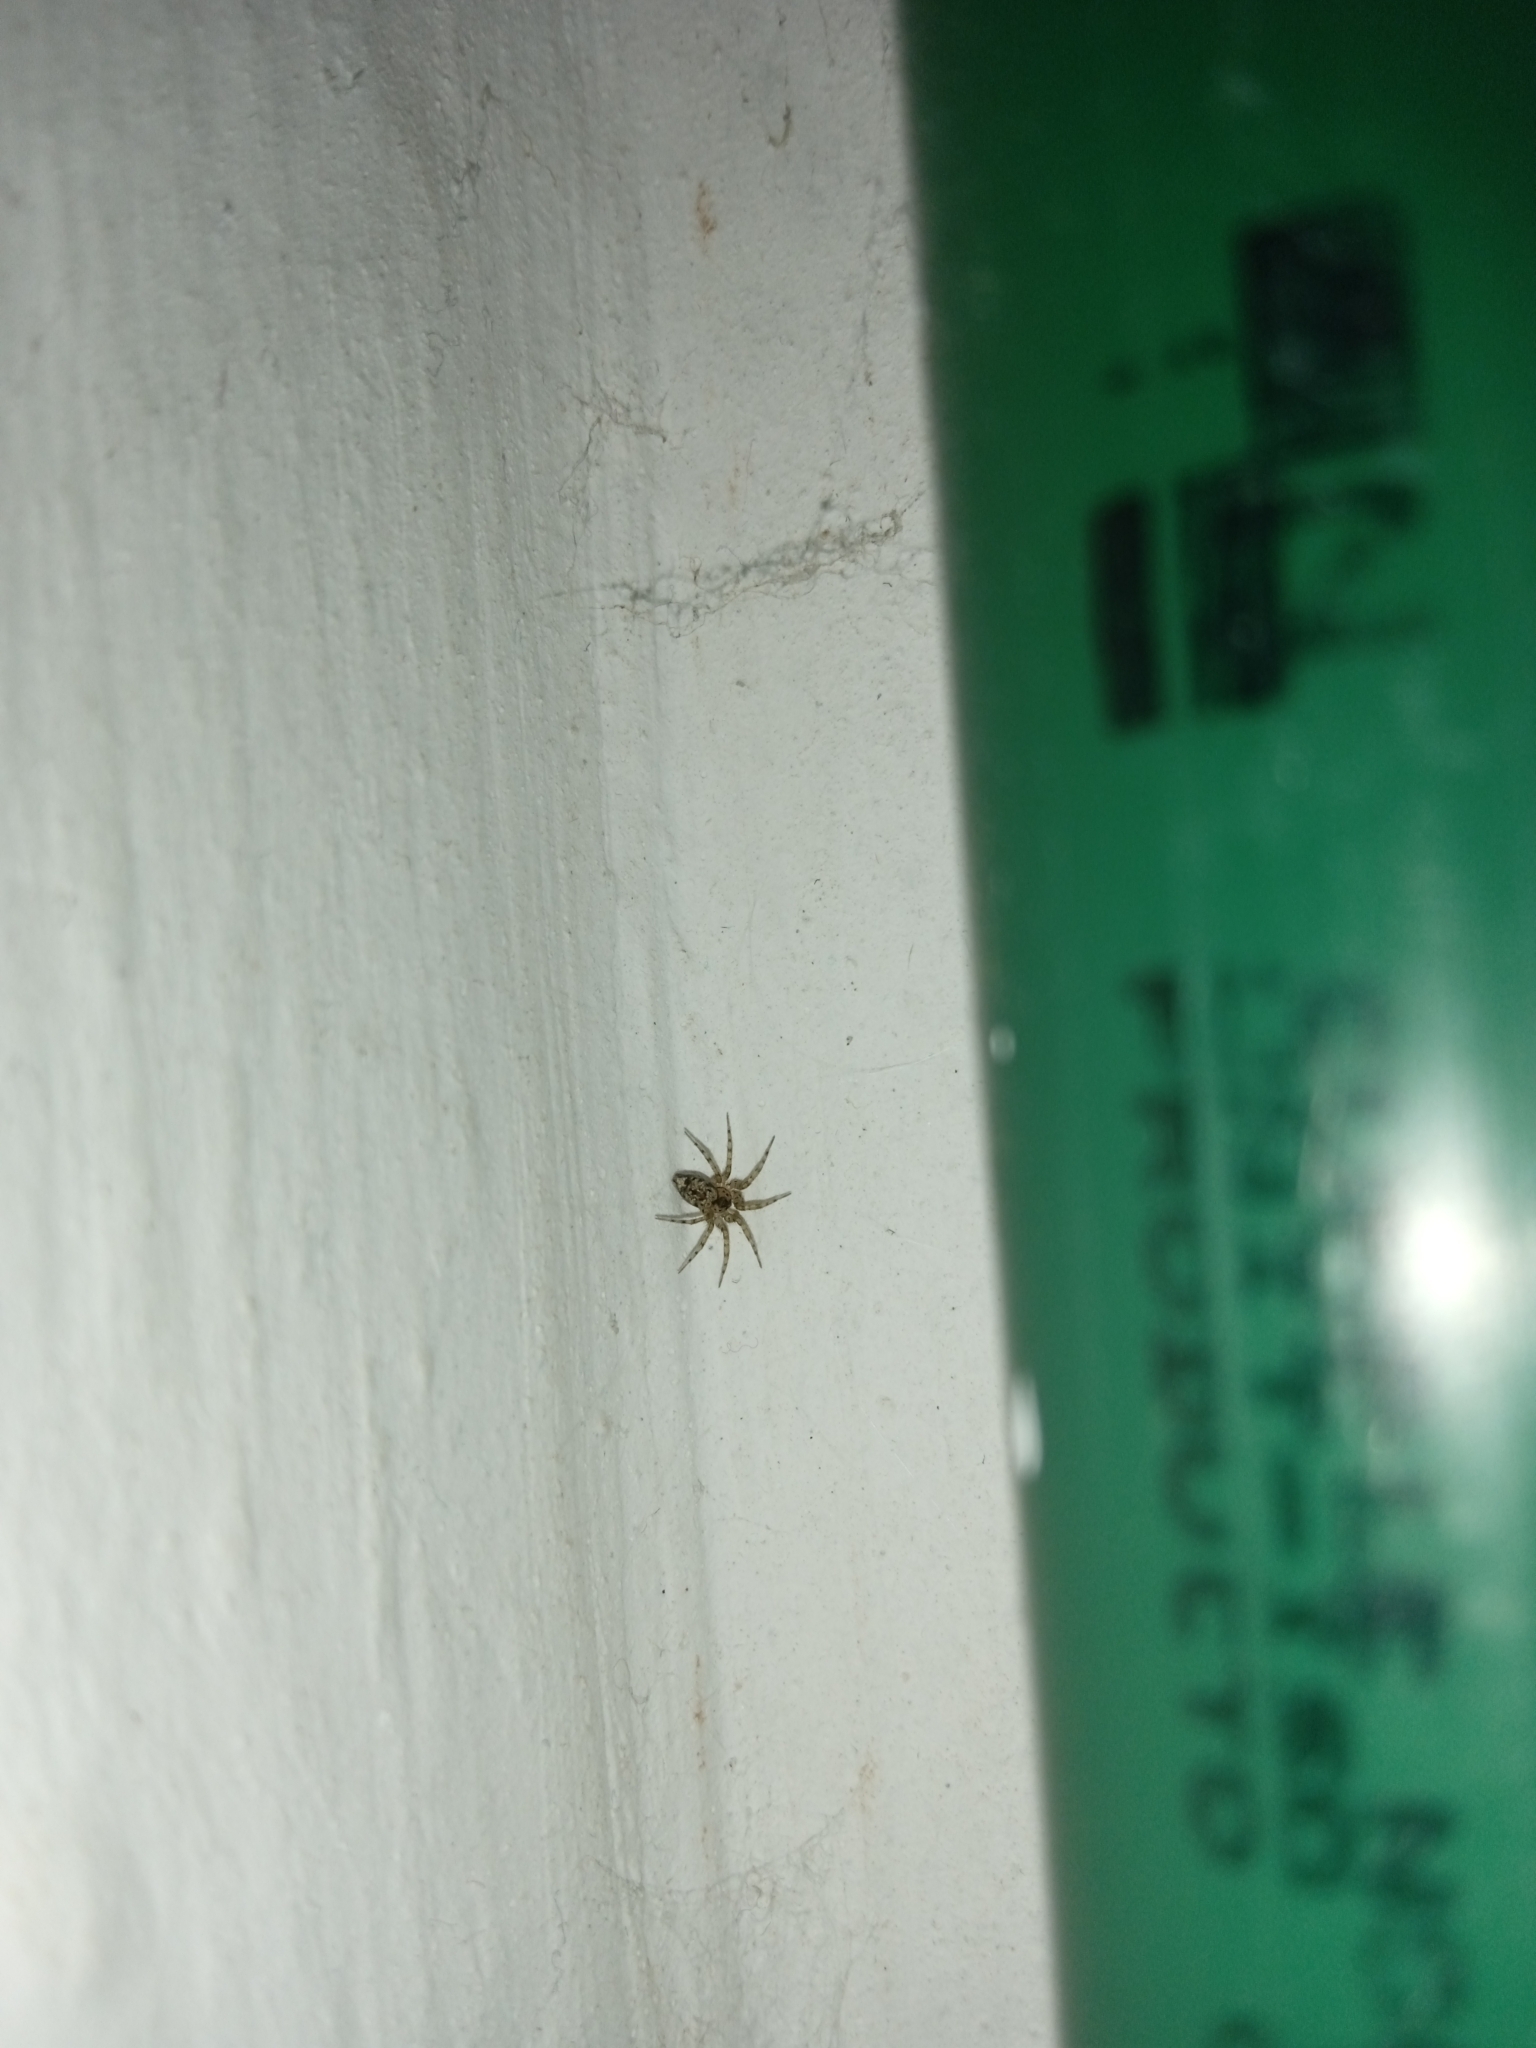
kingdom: Animalia
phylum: Arthropoda
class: Arachnida
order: Araneae
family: Oecobiidae
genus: Oecobius
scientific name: Oecobius navus
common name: Flatmesh weaver
